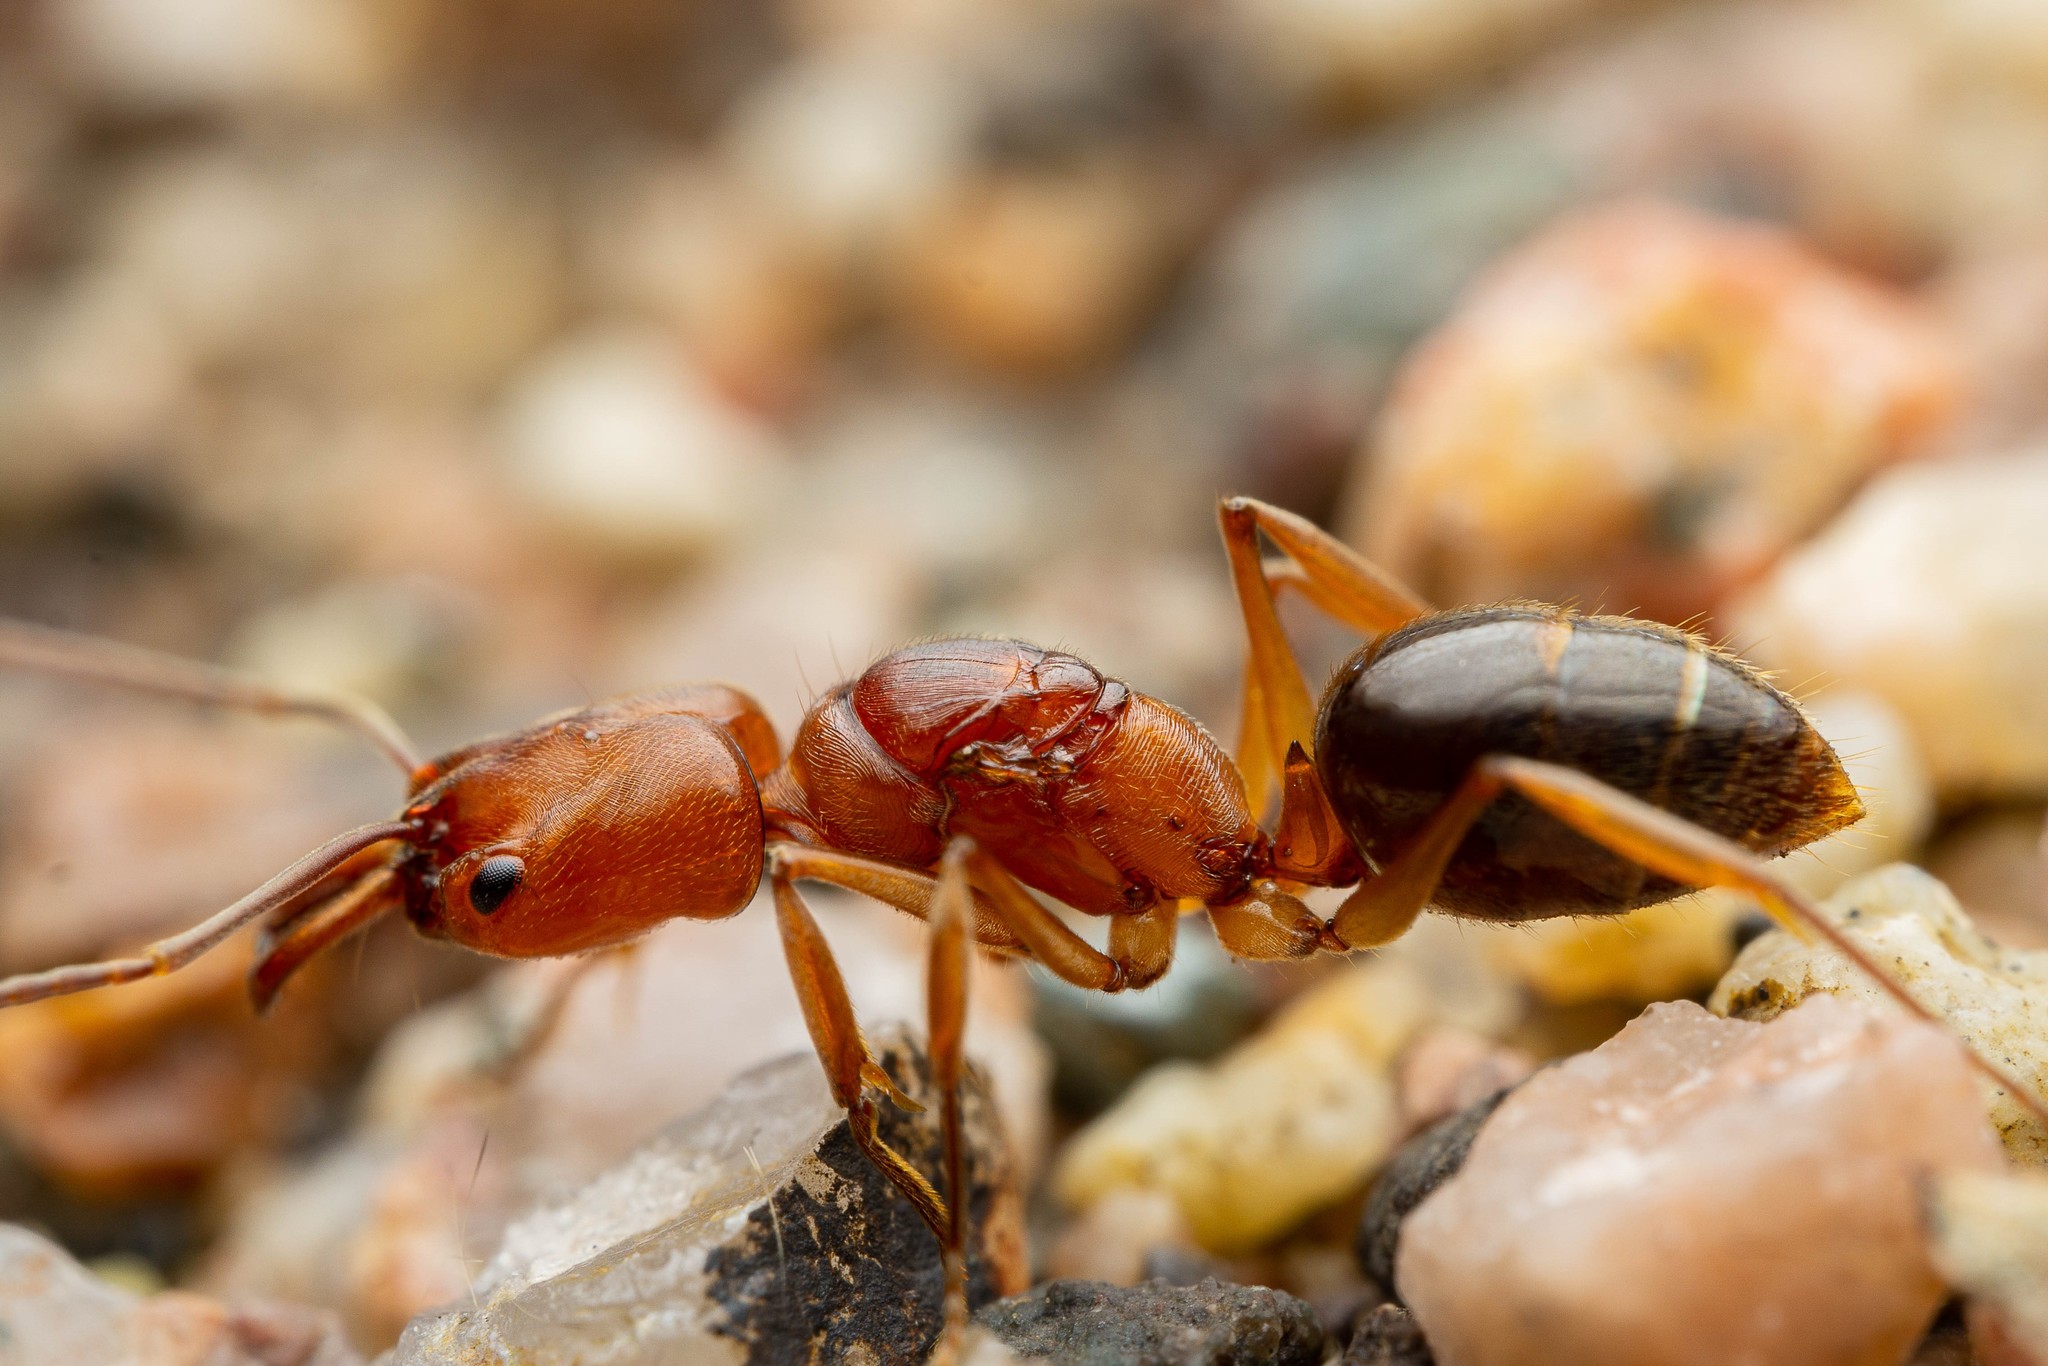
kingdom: Animalia
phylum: Arthropoda
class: Insecta
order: Hymenoptera
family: Formicidae
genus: Odontomachus
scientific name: Odontomachus clarus
